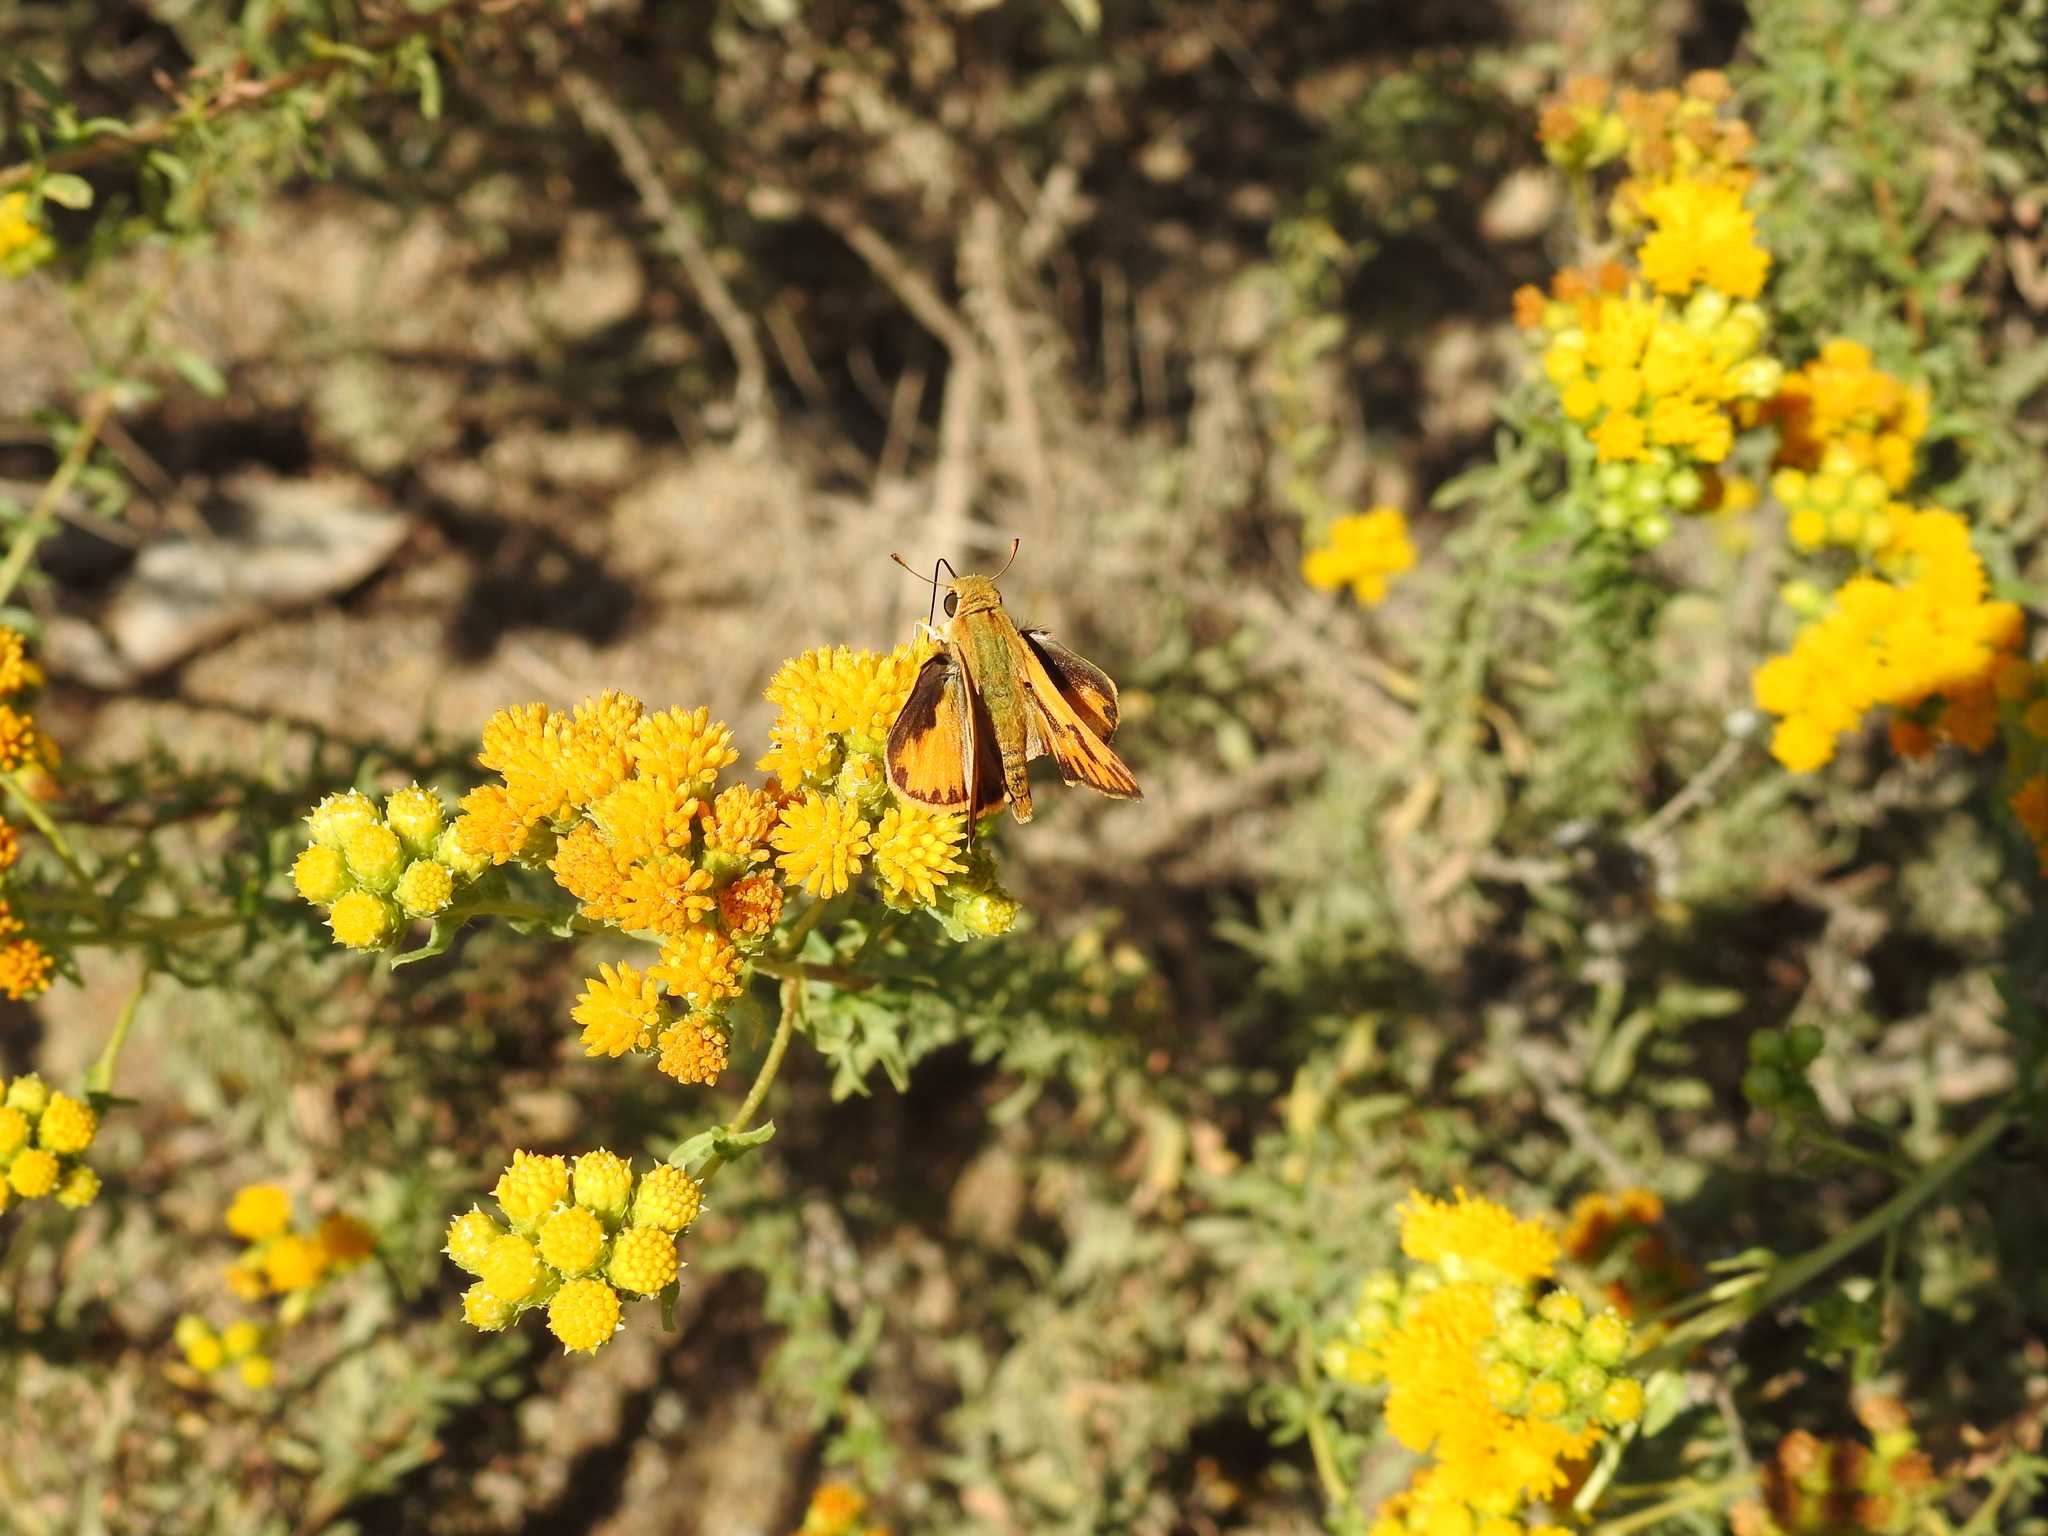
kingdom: Animalia
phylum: Arthropoda
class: Insecta
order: Lepidoptera
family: Hesperiidae
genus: Hylephila
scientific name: Hylephila phyleus
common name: Fiery skipper
